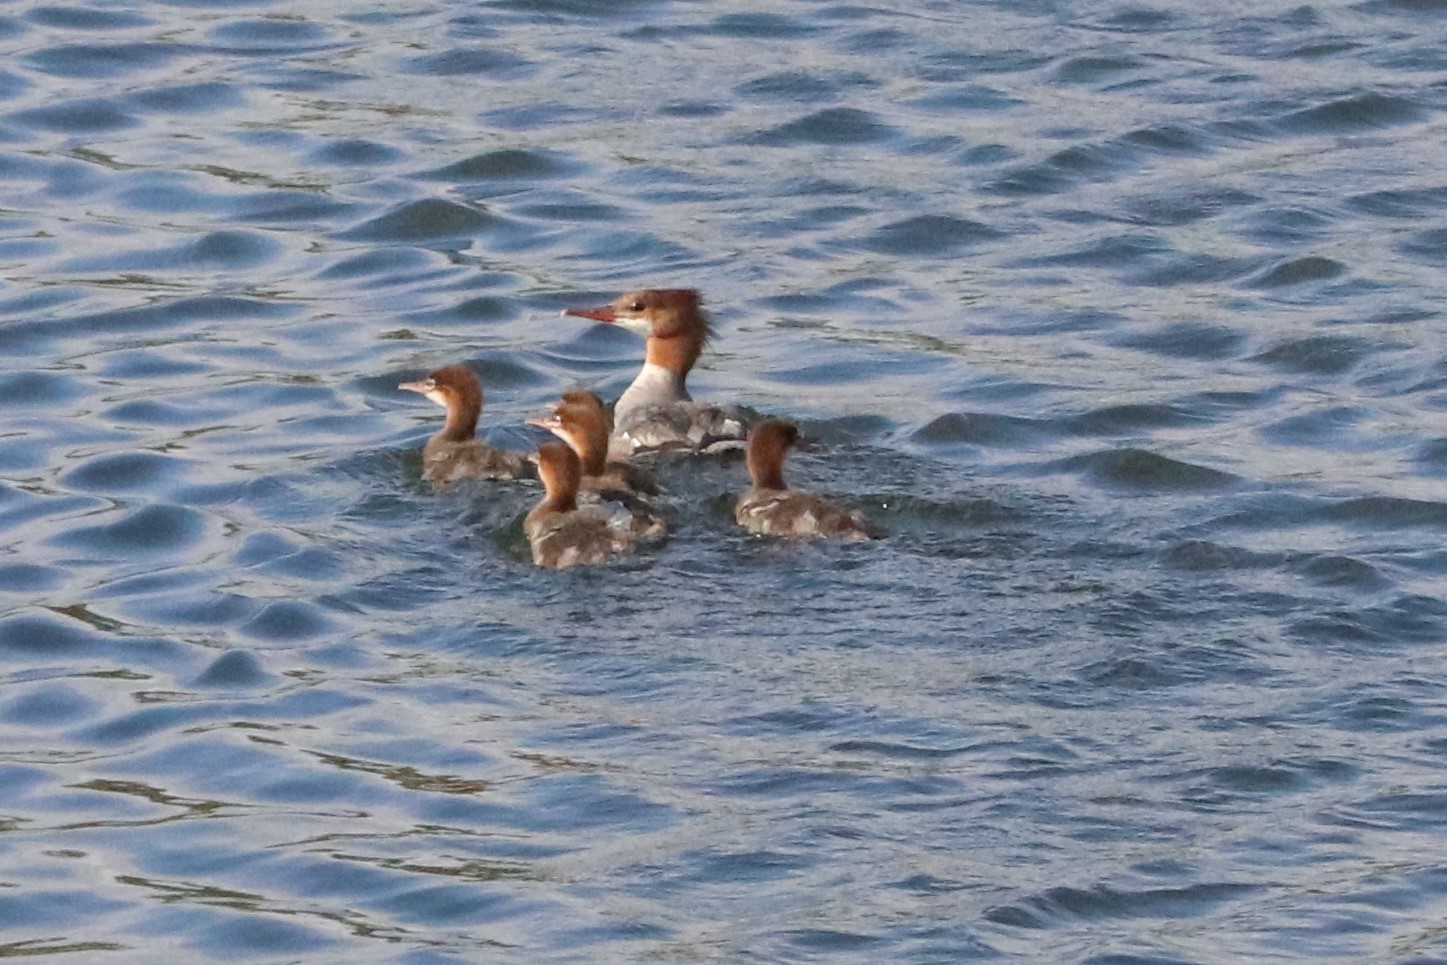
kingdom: Animalia
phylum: Chordata
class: Aves
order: Anseriformes
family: Anatidae
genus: Mergus
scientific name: Mergus merganser
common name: Common merganser
